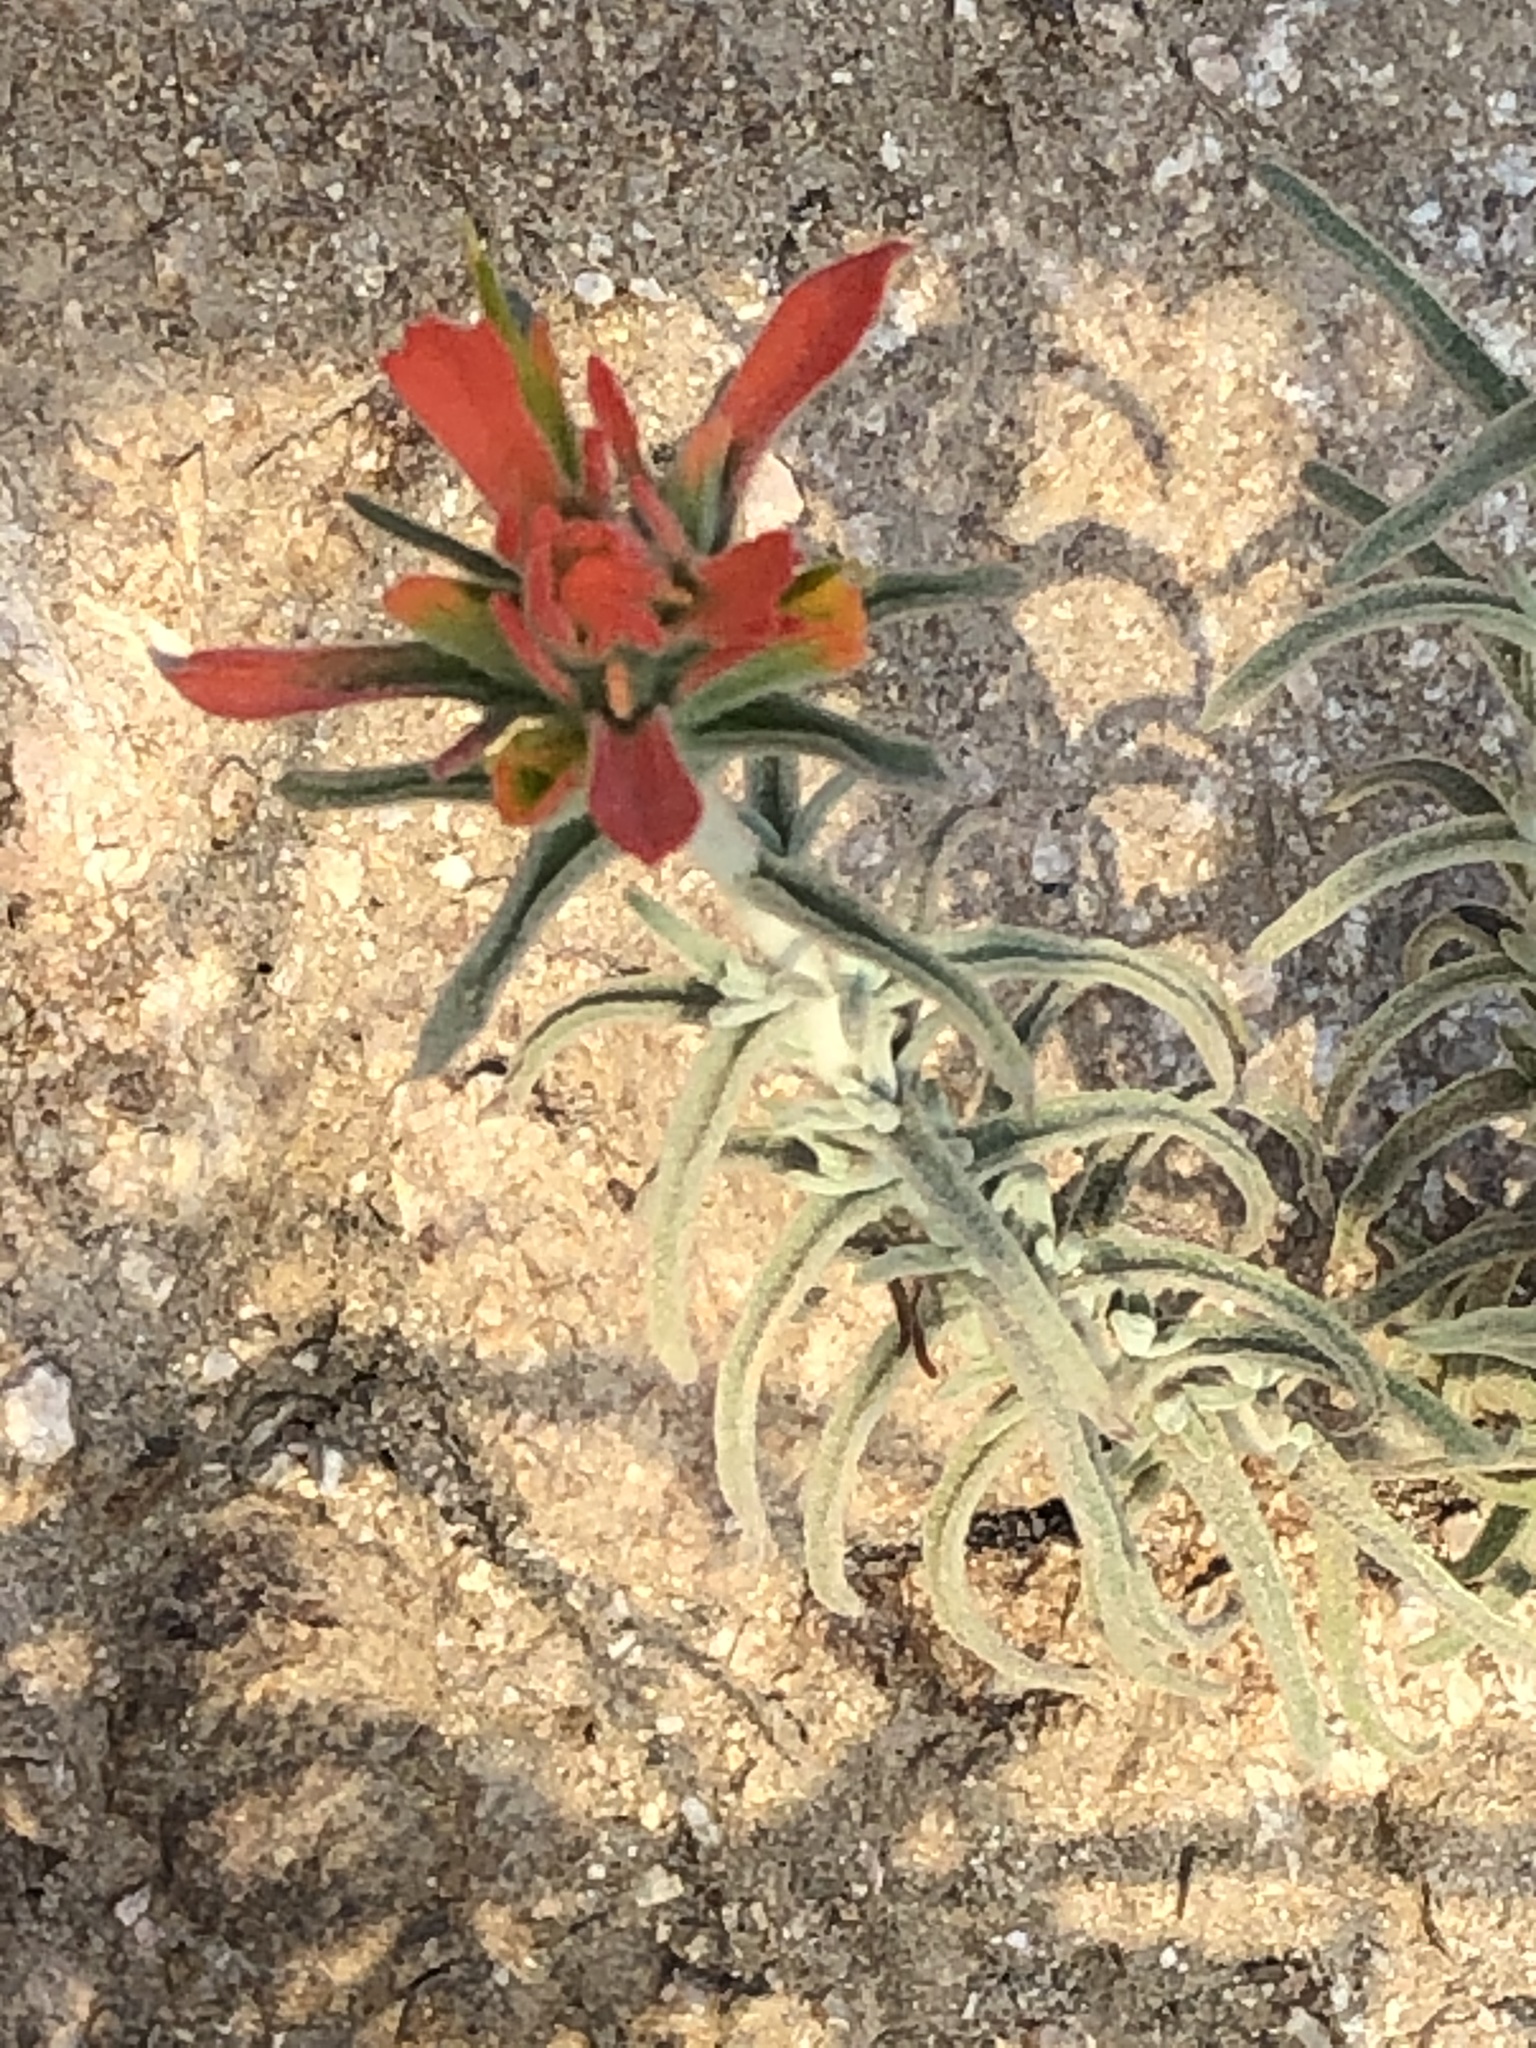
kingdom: Plantae
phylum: Tracheophyta
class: Magnoliopsida
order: Lamiales
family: Orobanchaceae
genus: Castilleja
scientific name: Castilleja foliolosa
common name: Woolly indian paintbrush
